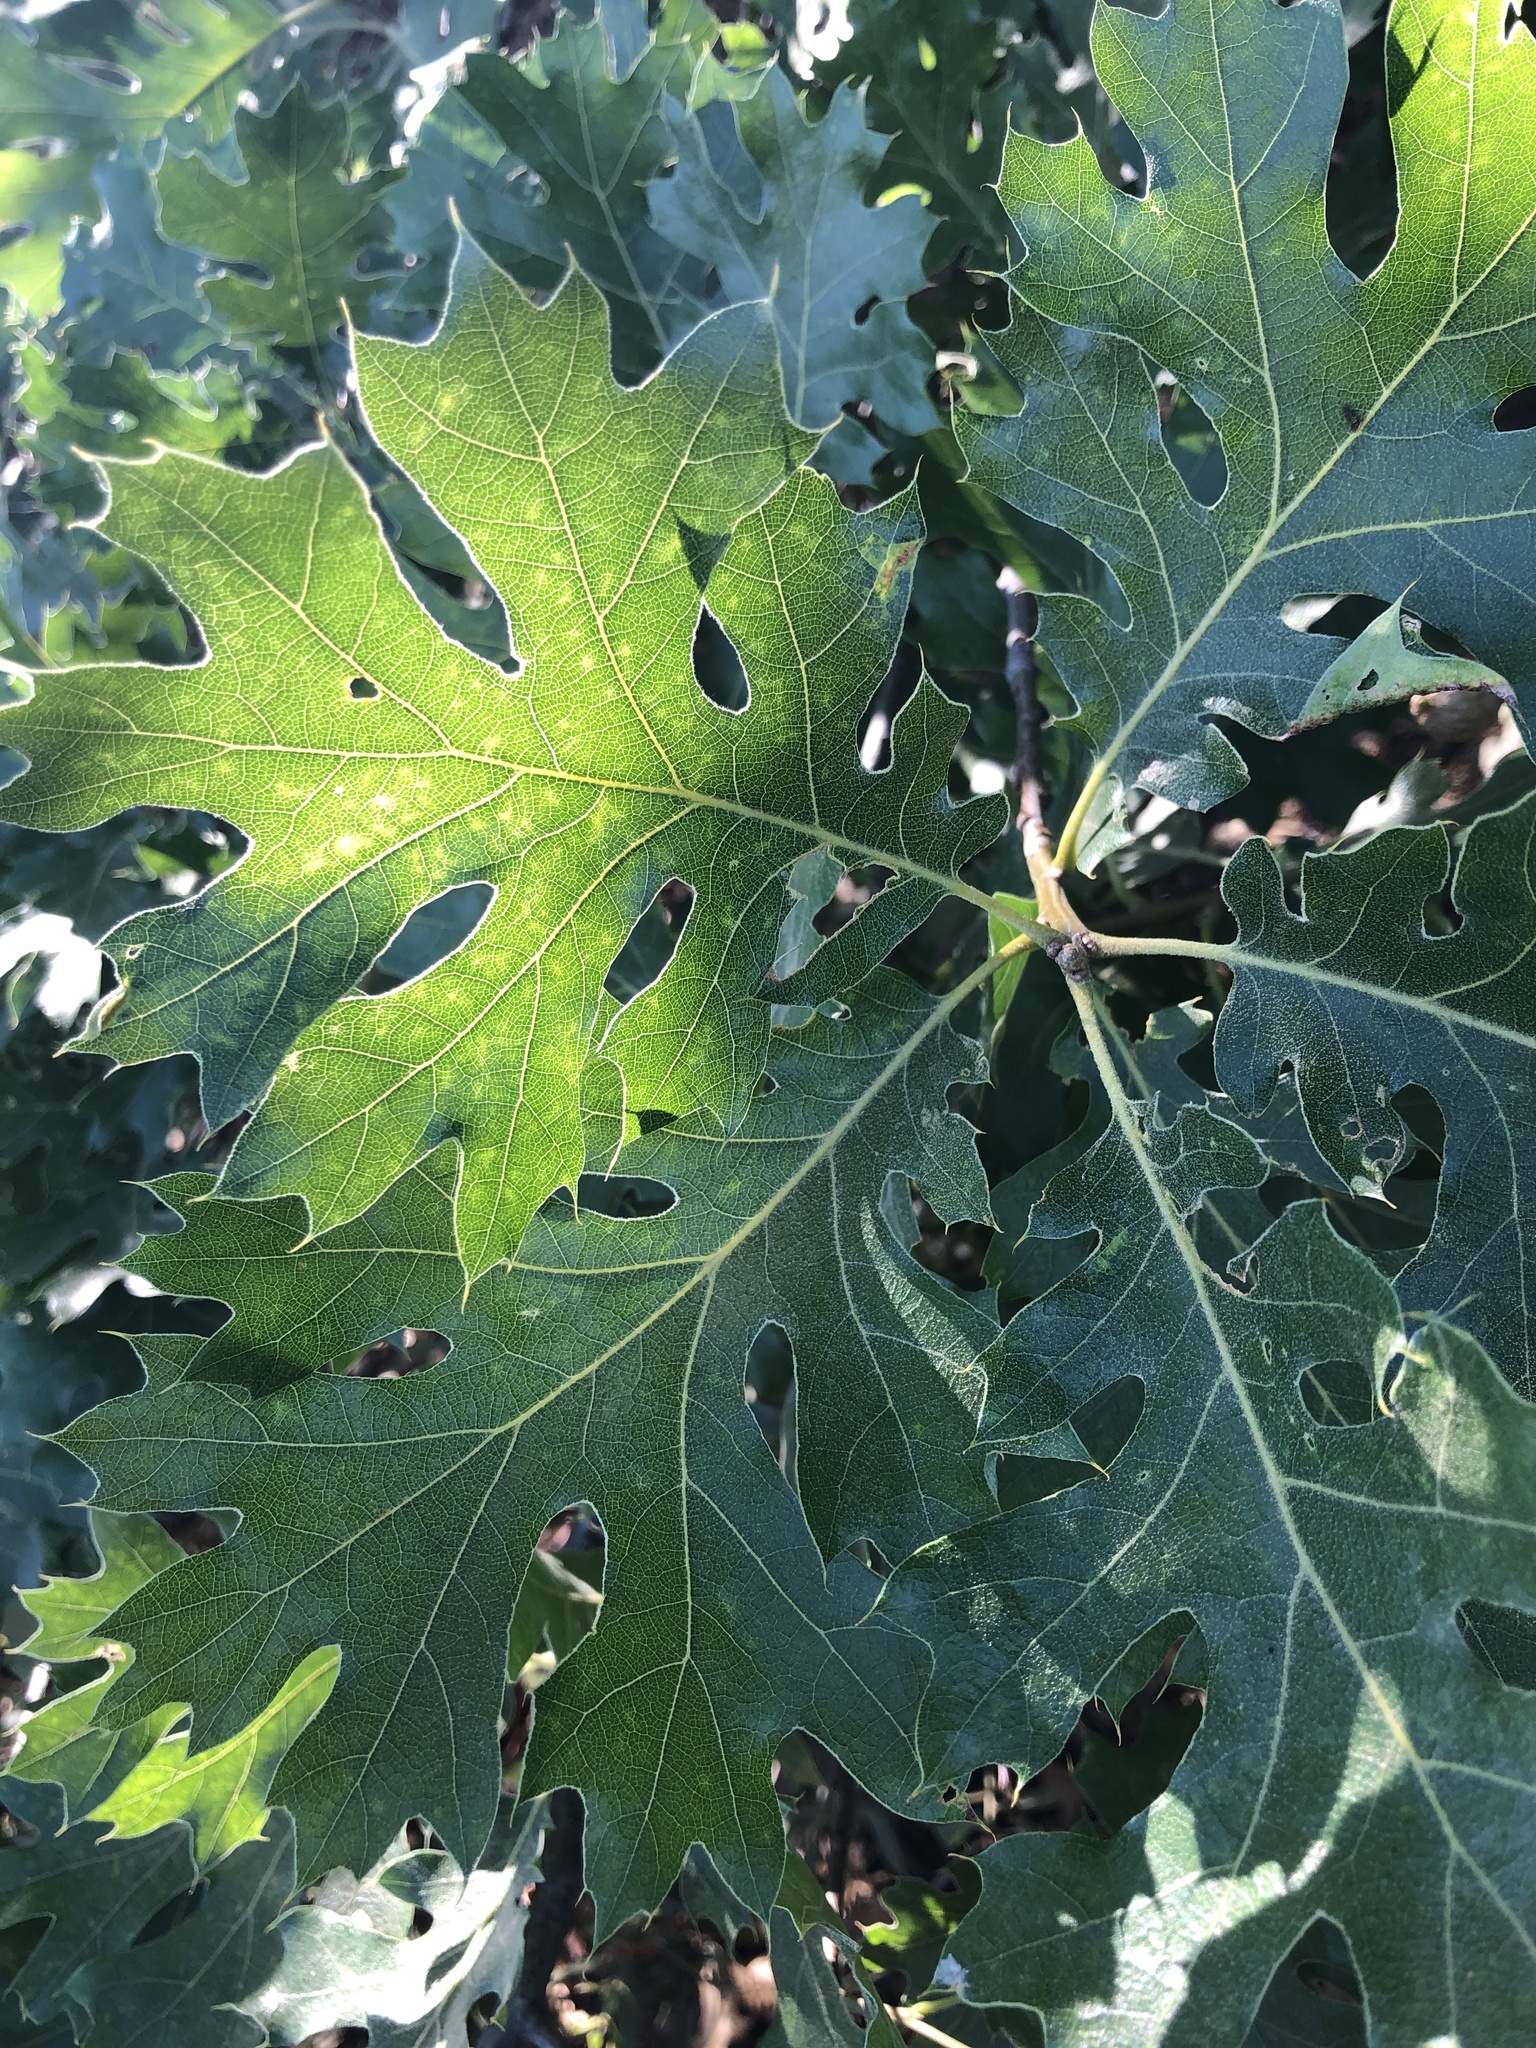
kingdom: Plantae
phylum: Tracheophyta
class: Magnoliopsida
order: Fagales
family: Fagaceae
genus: Quercus
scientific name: Quercus kelloggii
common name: California black oak
